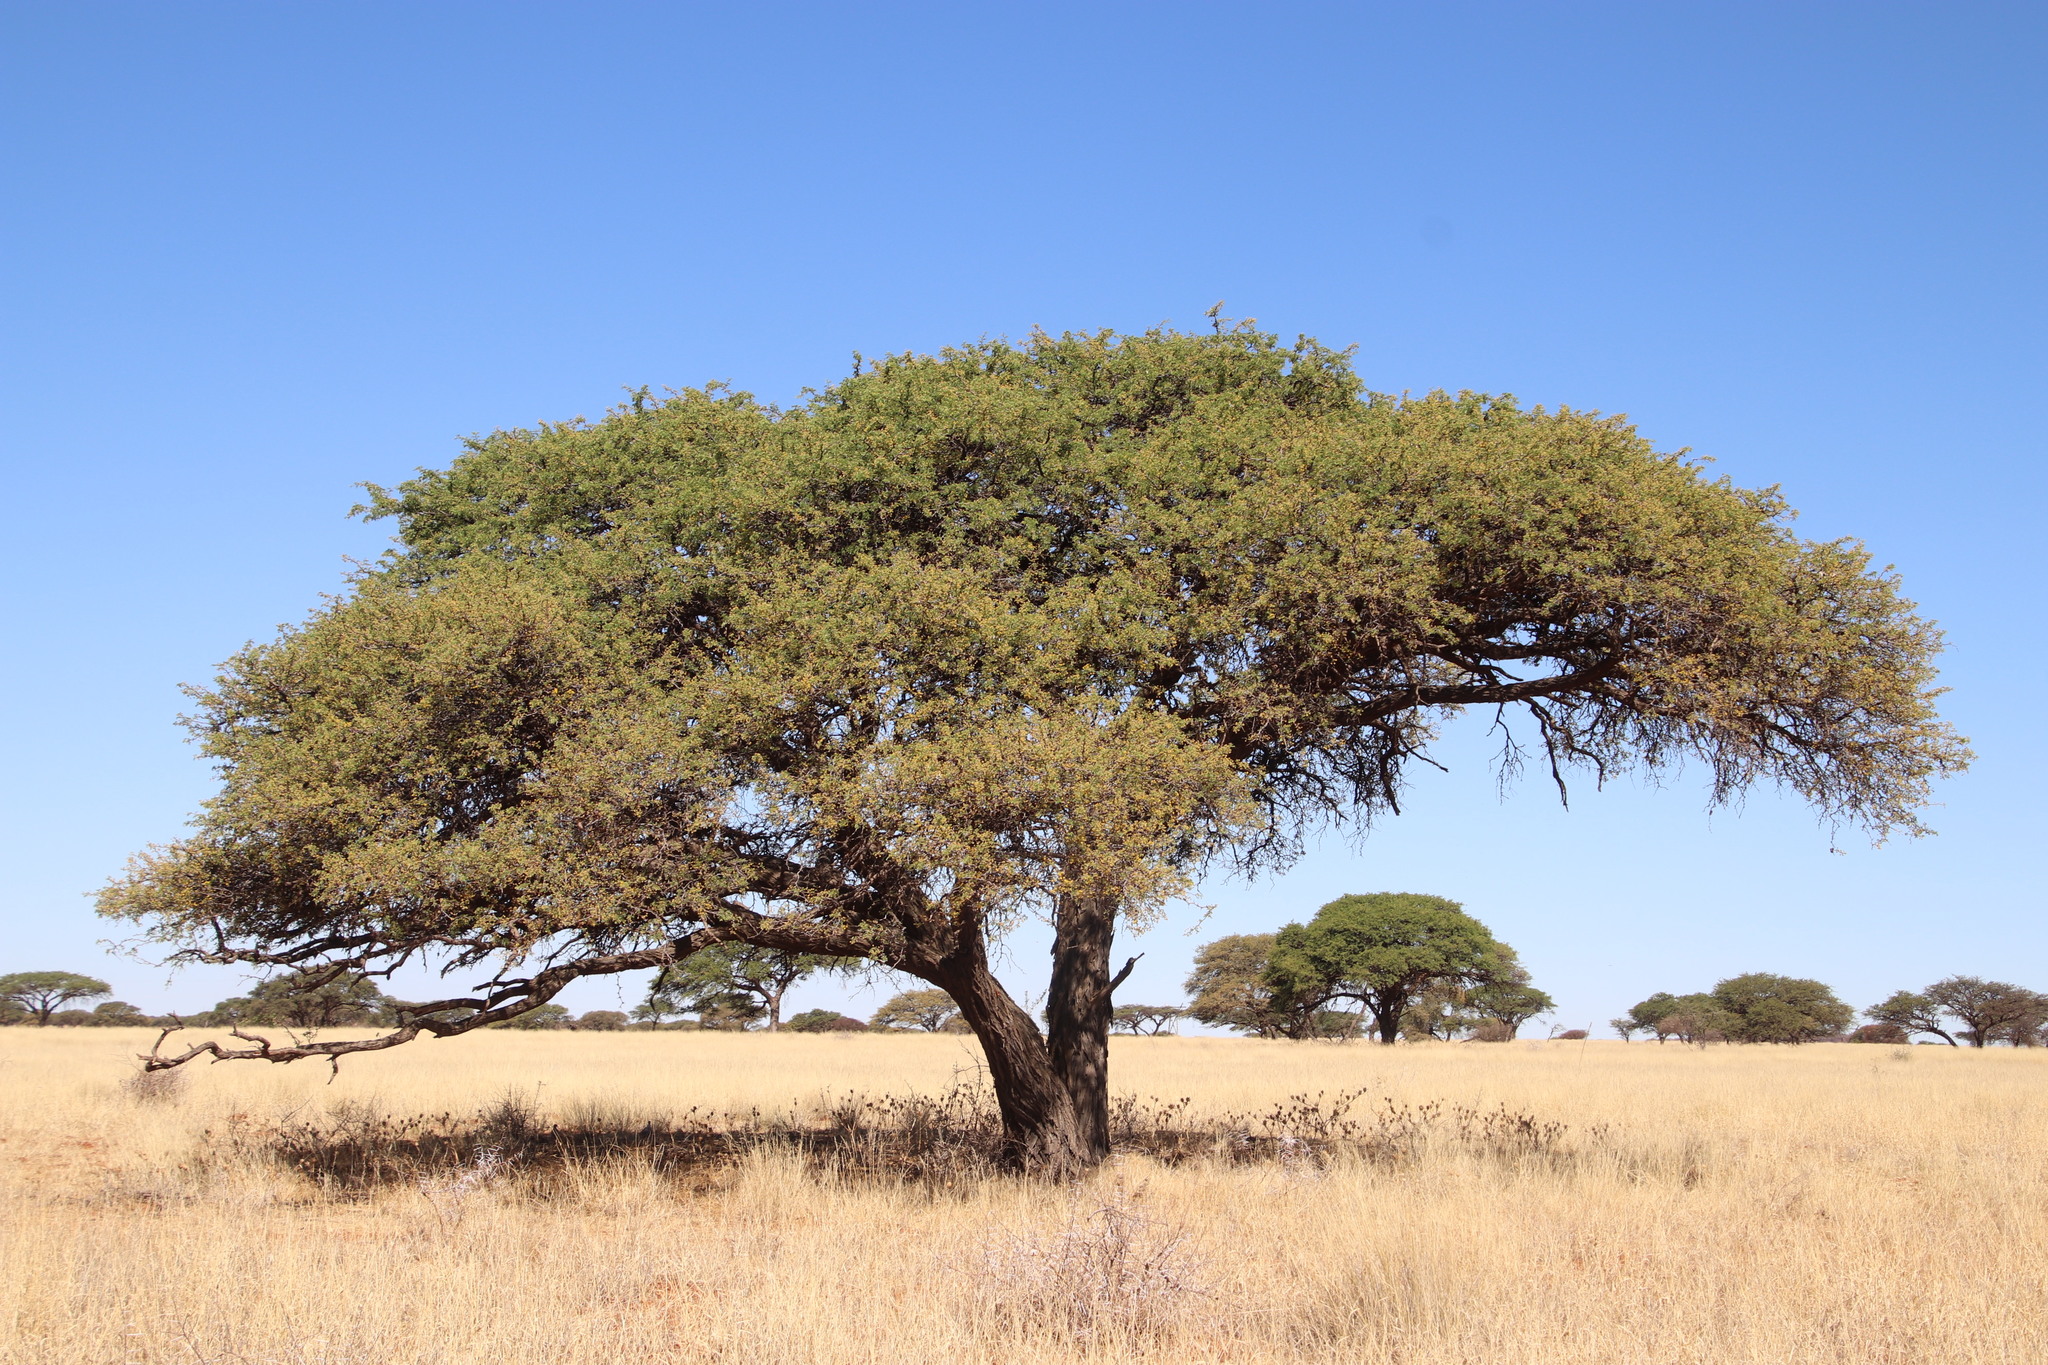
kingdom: Plantae
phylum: Tracheophyta
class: Magnoliopsida
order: Fabales
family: Fabaceae
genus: Vachellia
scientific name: Vachellia erioloba
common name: Camel thorn
